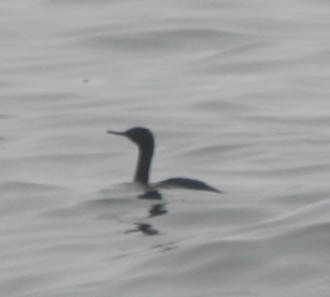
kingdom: Animalia
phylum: Chordata
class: Aves
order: Suliformes
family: Phalacrocoracidae
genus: Phalacrocorax
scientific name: Phalacrocorax pelagicus
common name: Pelagic cormorant
